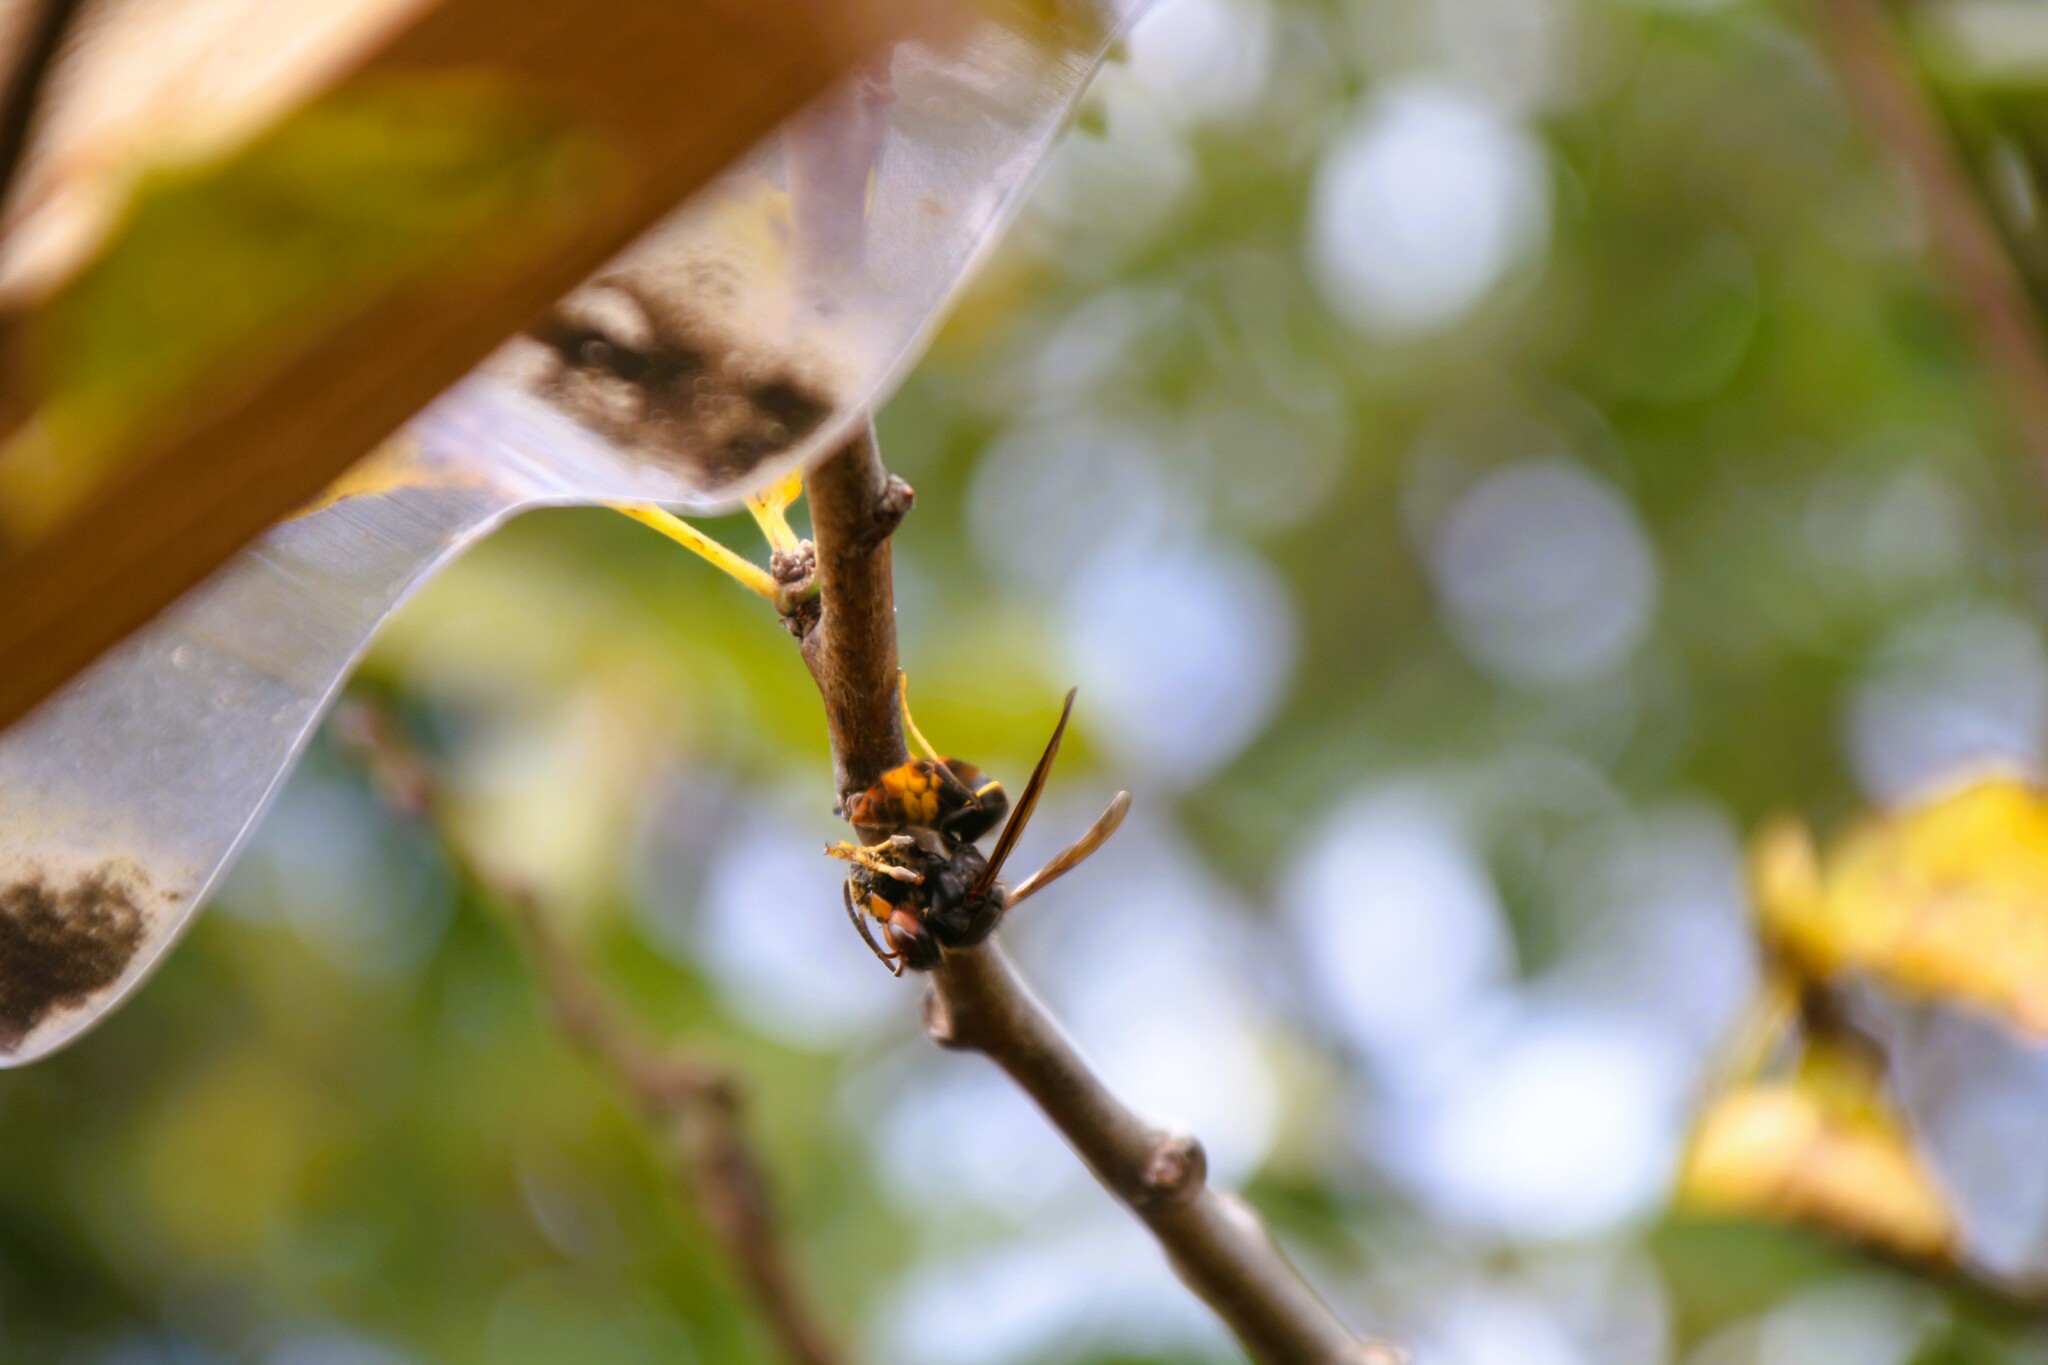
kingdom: Animalia
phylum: Arthropoda
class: Insecta
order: Hymenoptera
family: Vespidae
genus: Vespa
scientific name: Vespa velutina
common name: Asian hornet
